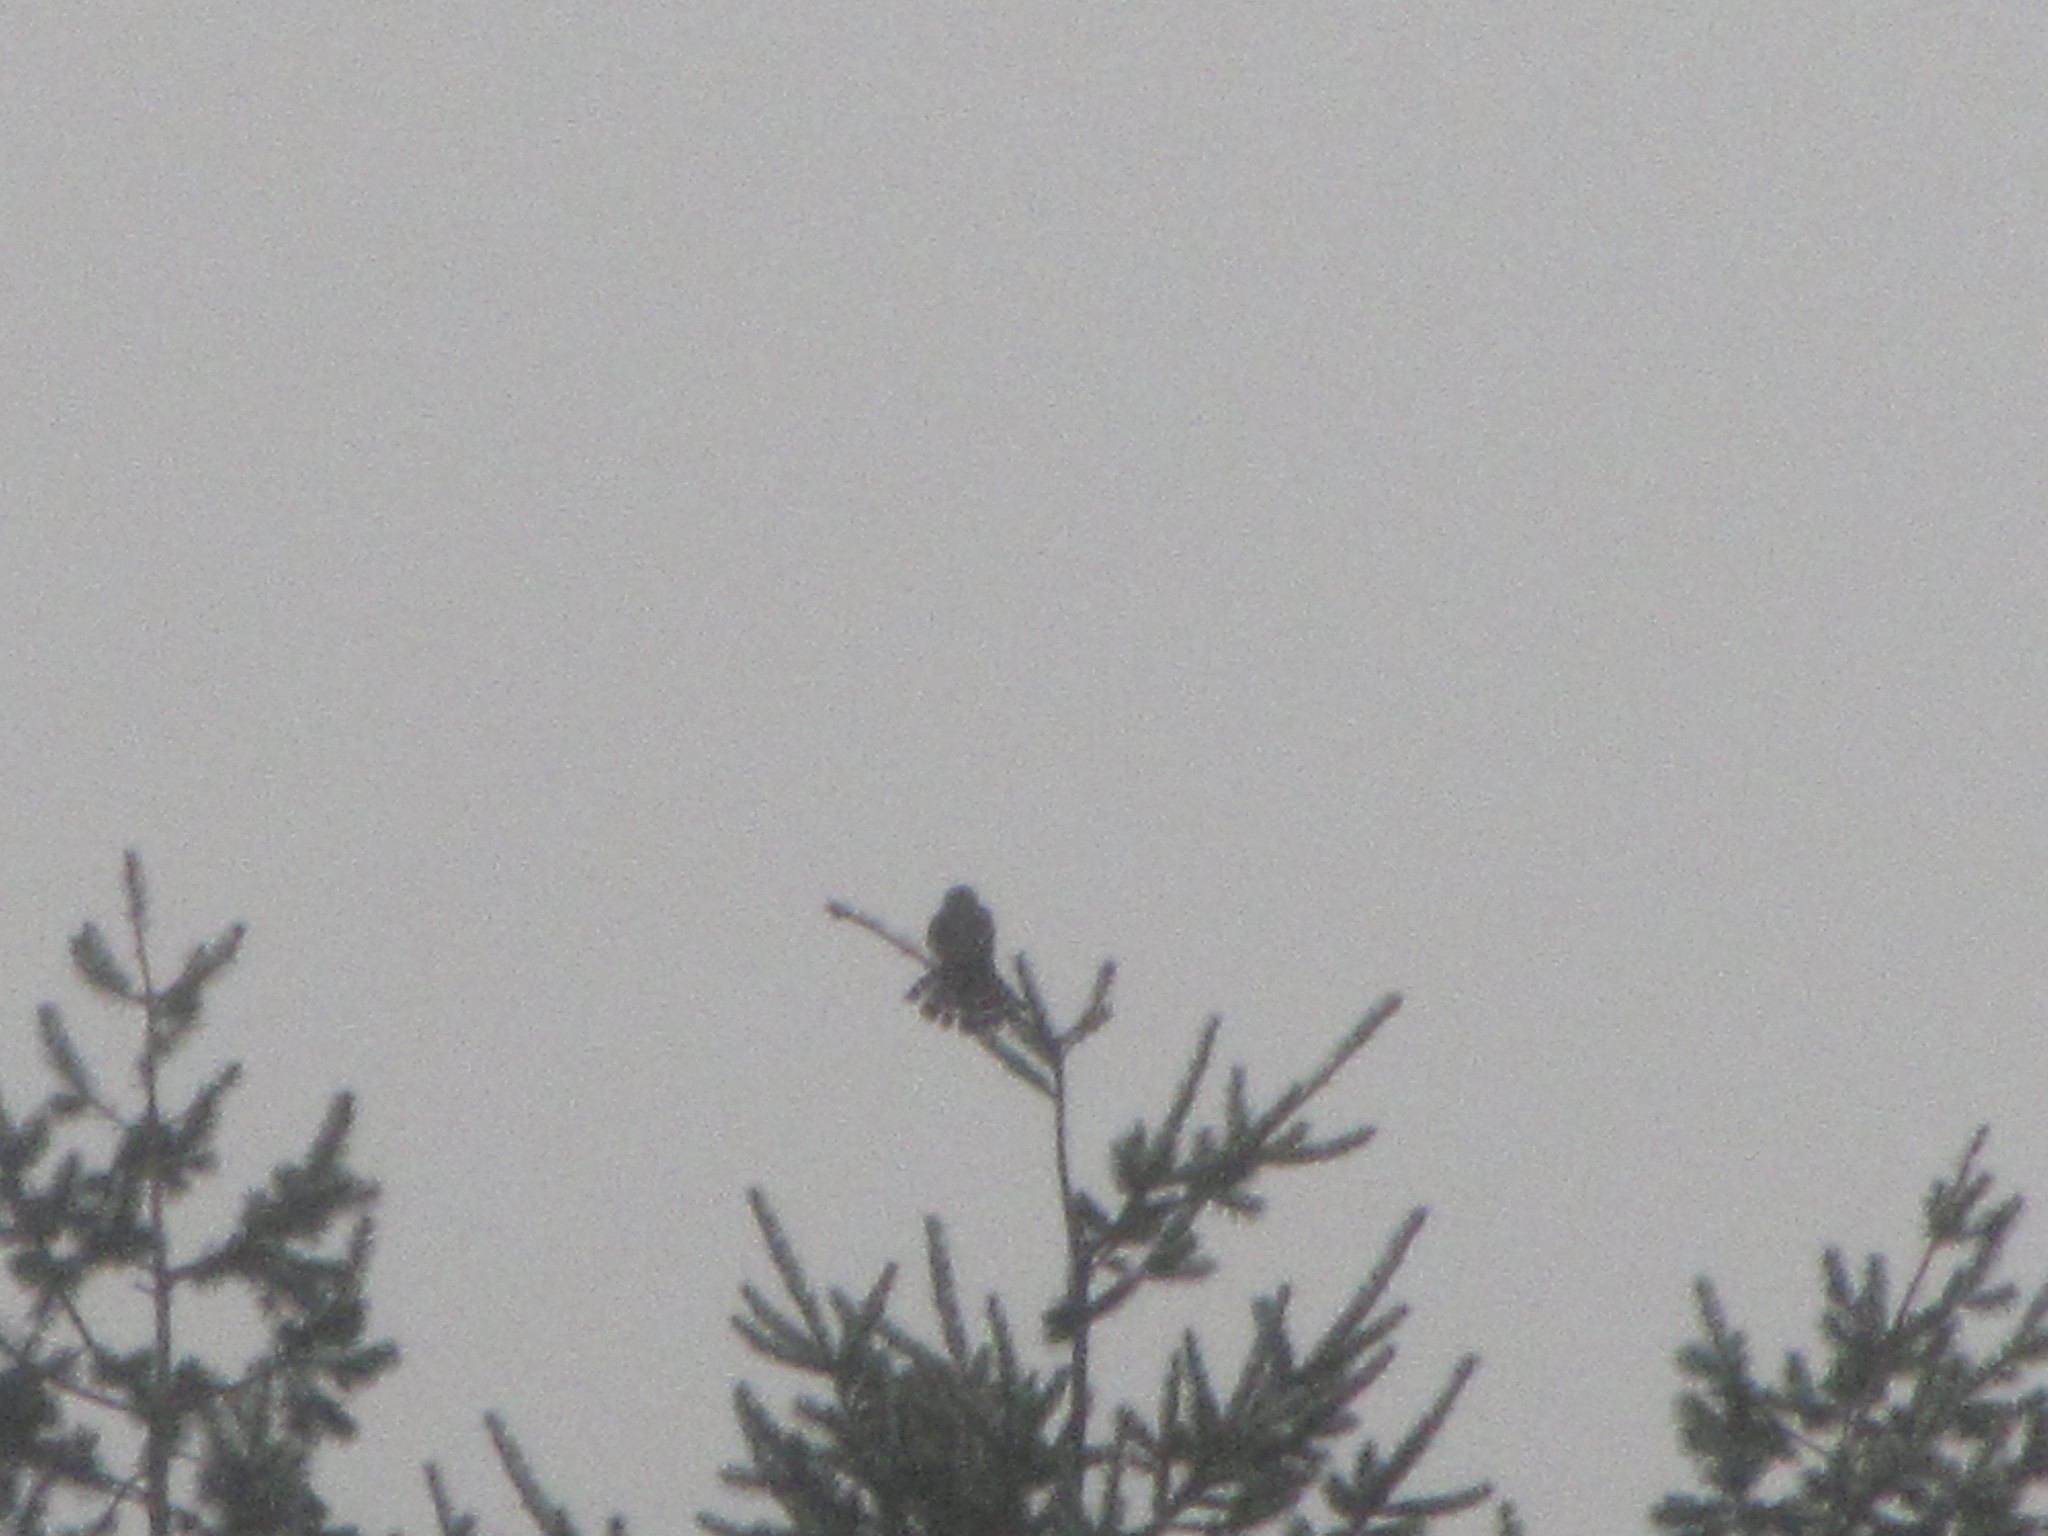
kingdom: Animalia
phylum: Chordata
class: Aves
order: Falconiformes
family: Falconidae
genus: Falco
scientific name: Falco columbarius
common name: Merlin
